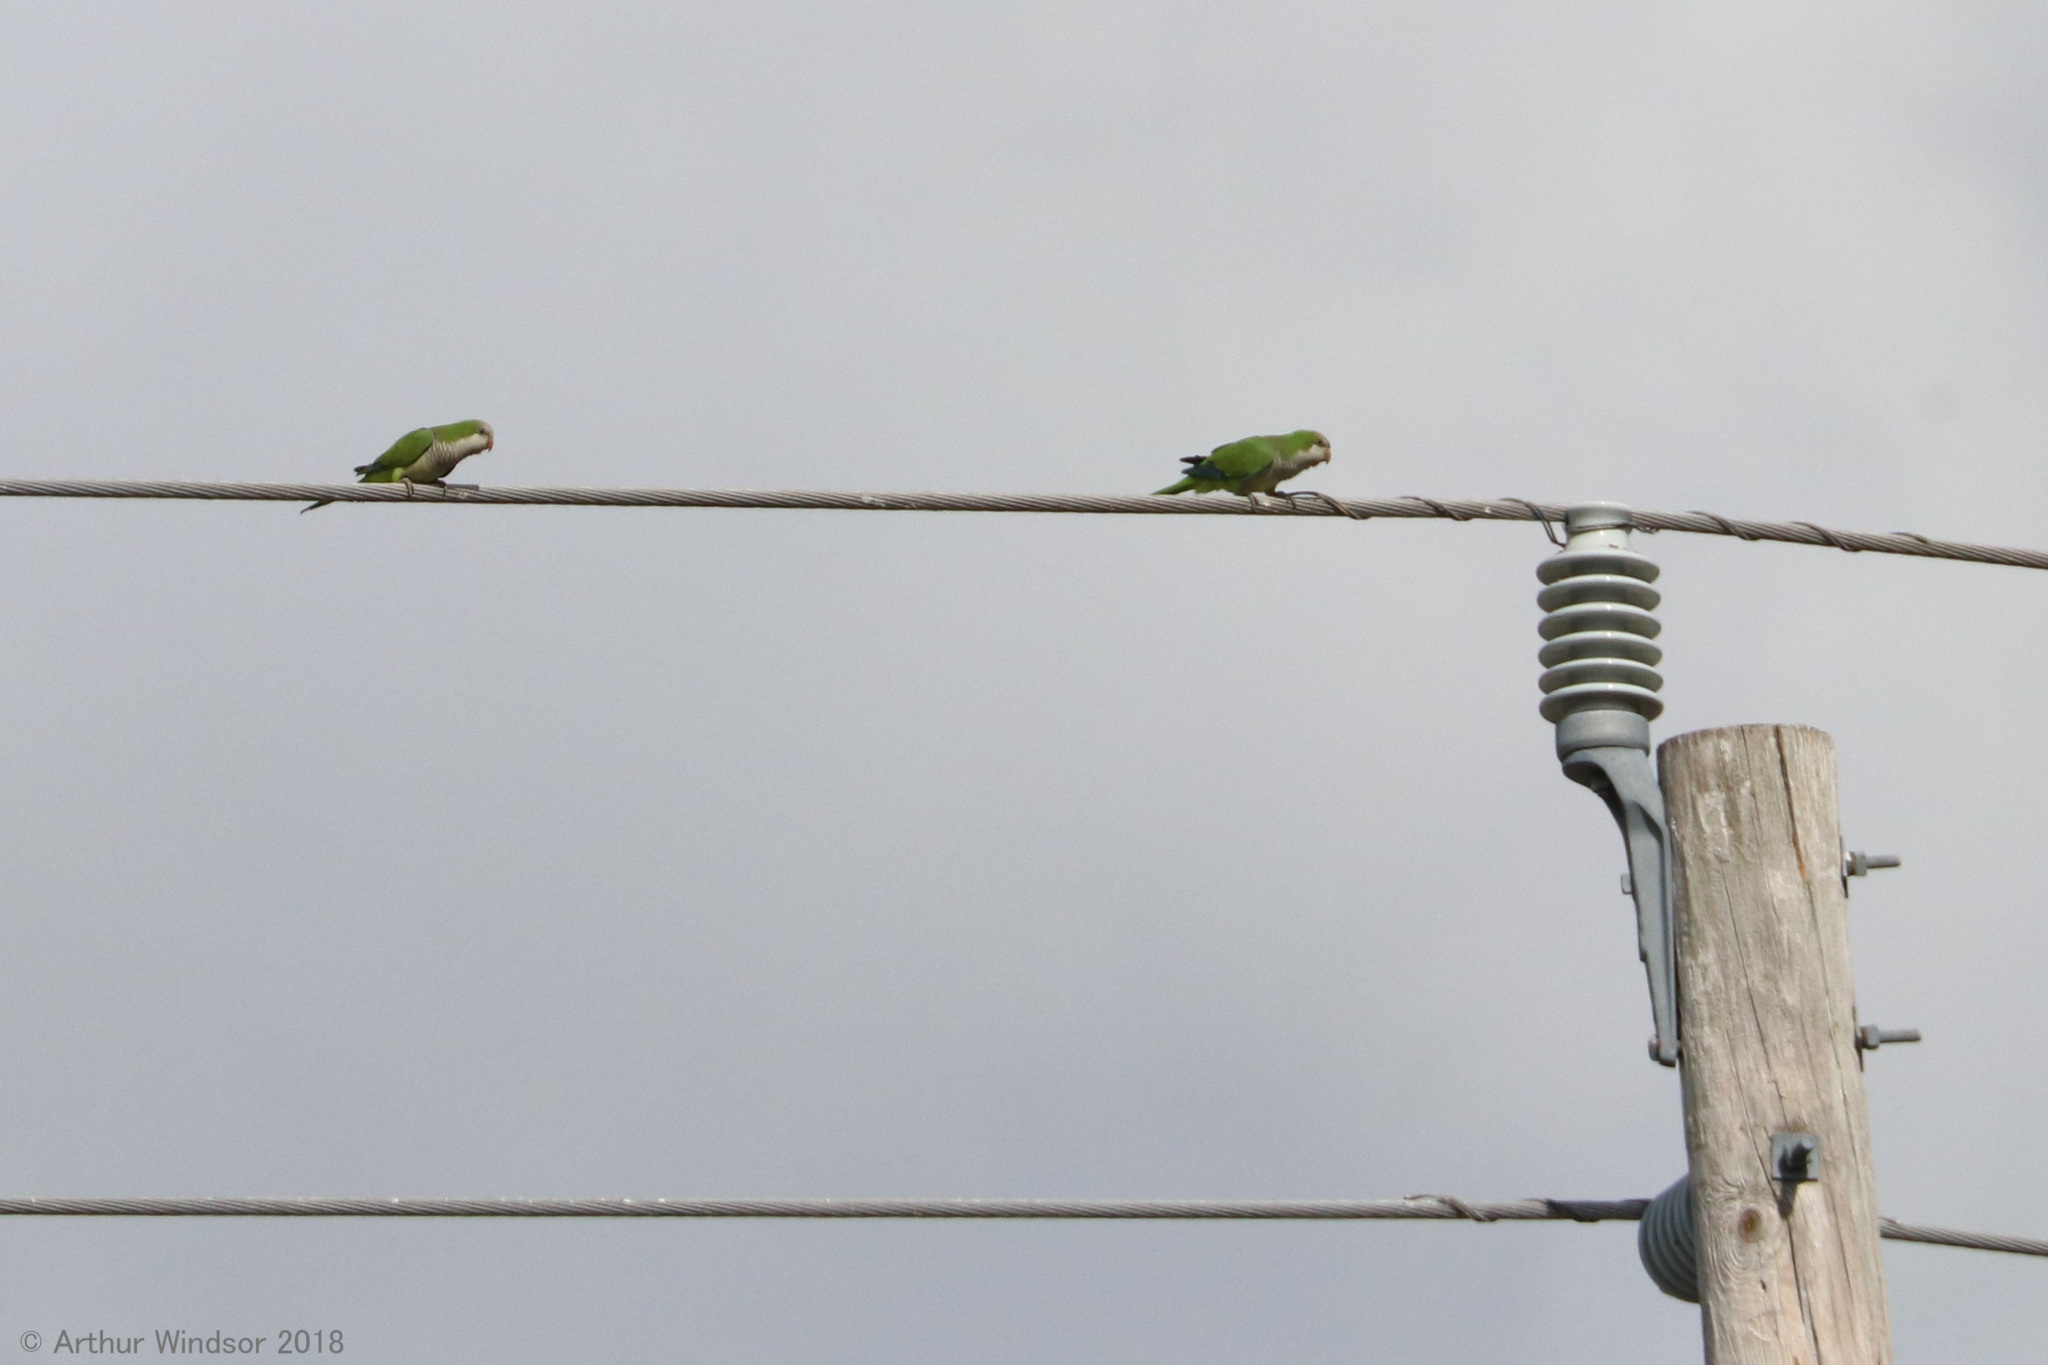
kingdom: Animalia
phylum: Chordata
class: Aves
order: Psittaciformes
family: Psittacidae
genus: Myiopsitta
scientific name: Myiopsitta monachus
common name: Monk parakeet
